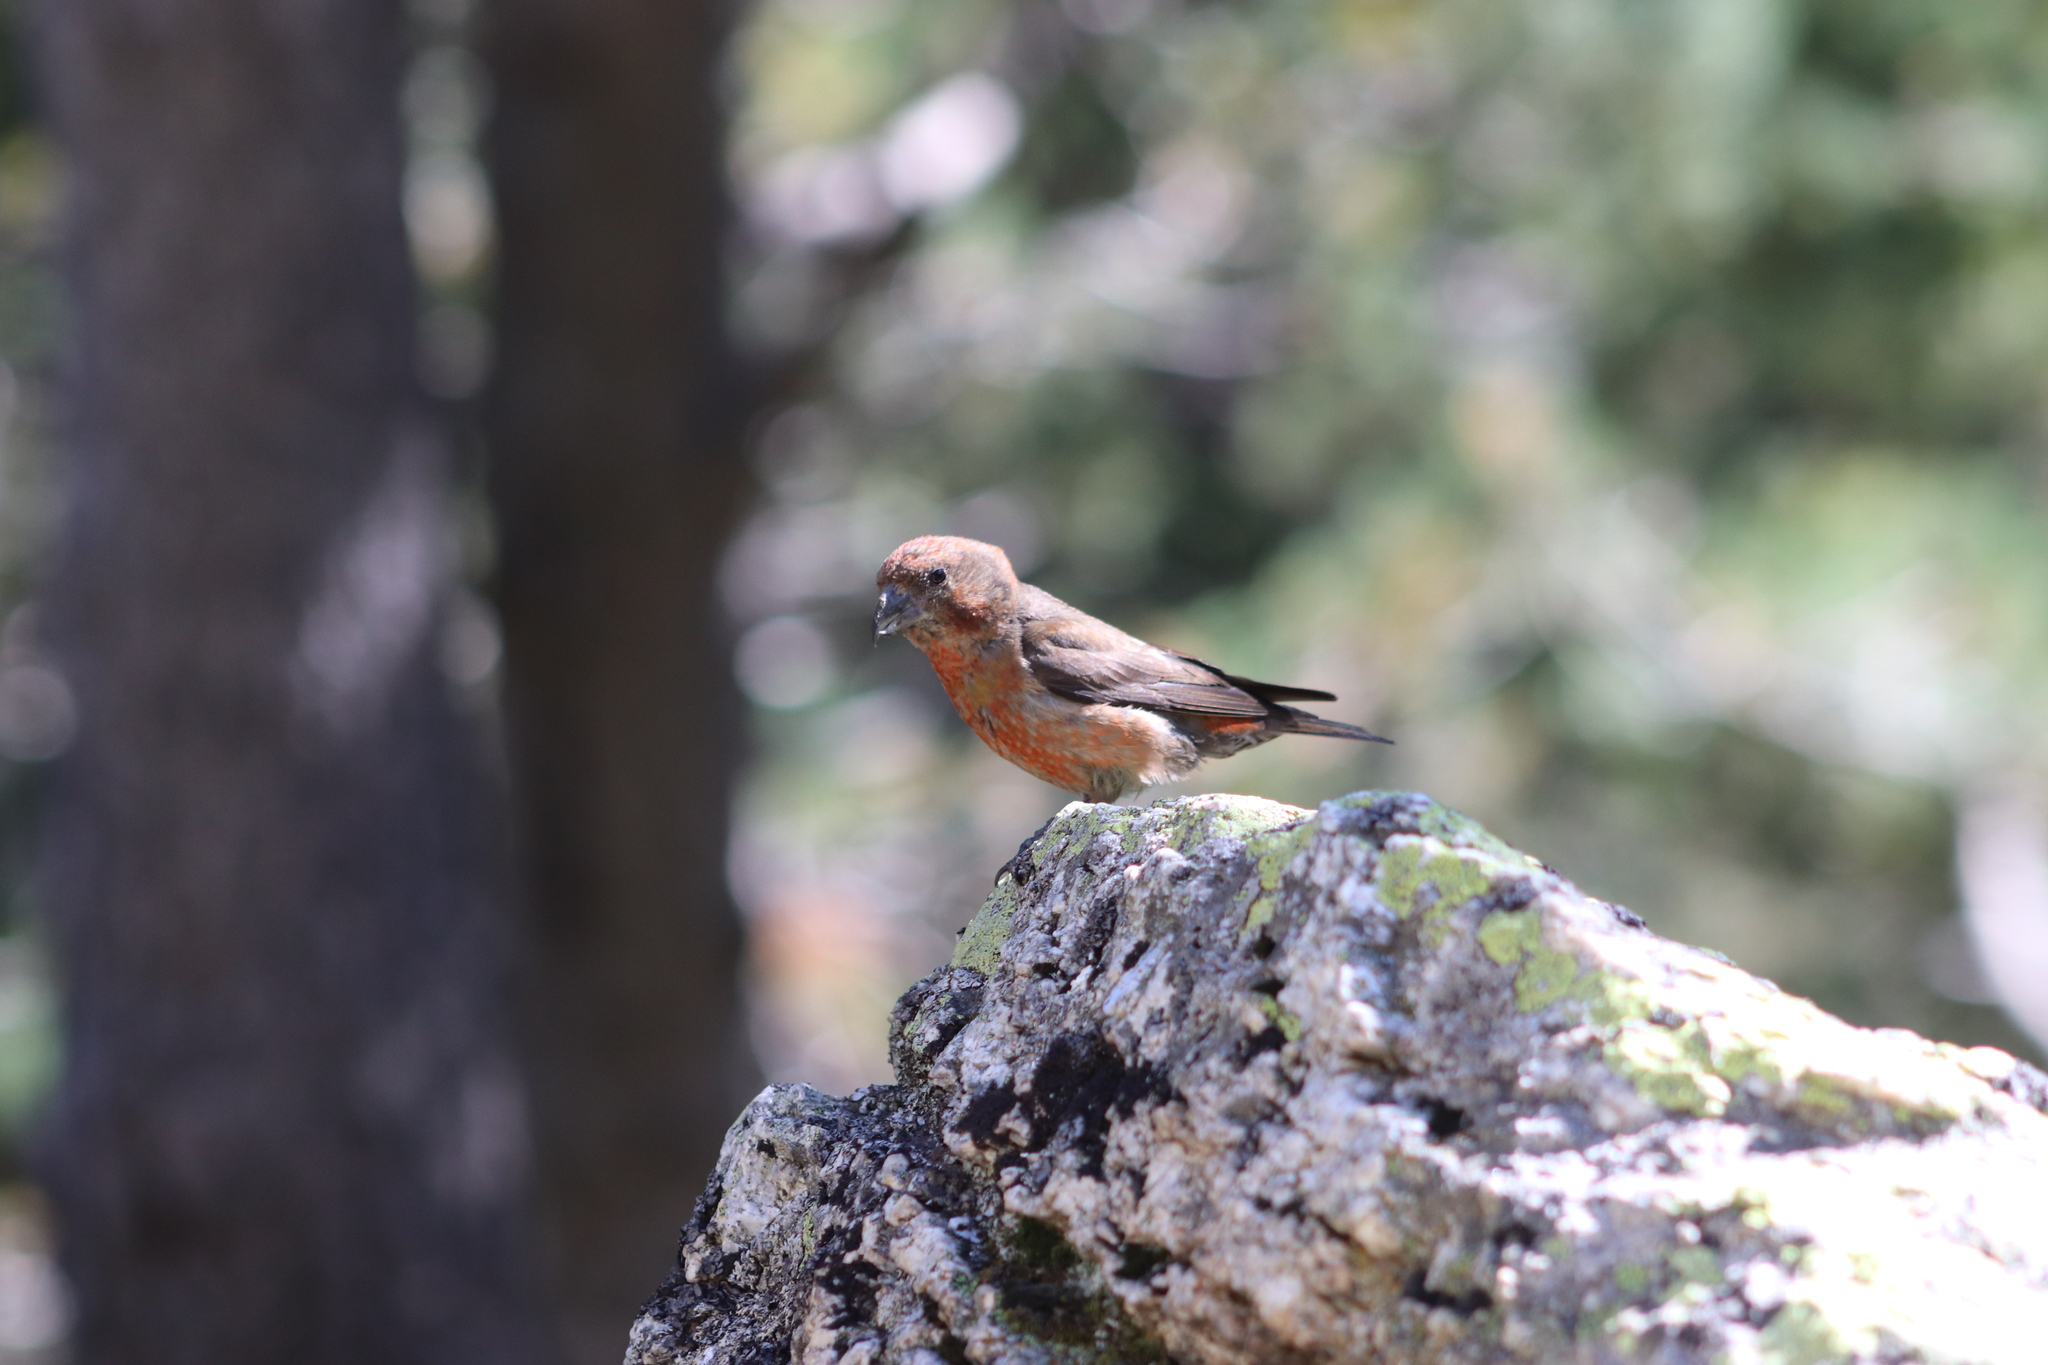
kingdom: Animalia
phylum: Chordata
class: Aves
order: Passeriformes
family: Fringillidae
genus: Loxia
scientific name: Loxia curvirostra
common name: Red crossbill
